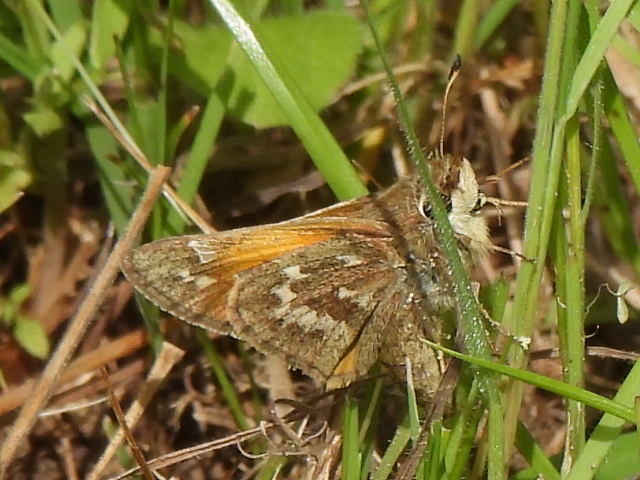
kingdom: Animalia
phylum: Arthropoda
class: Insecta
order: Lepidoptera
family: Hesperiidae
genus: Atalopedes
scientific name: Atalopedes
